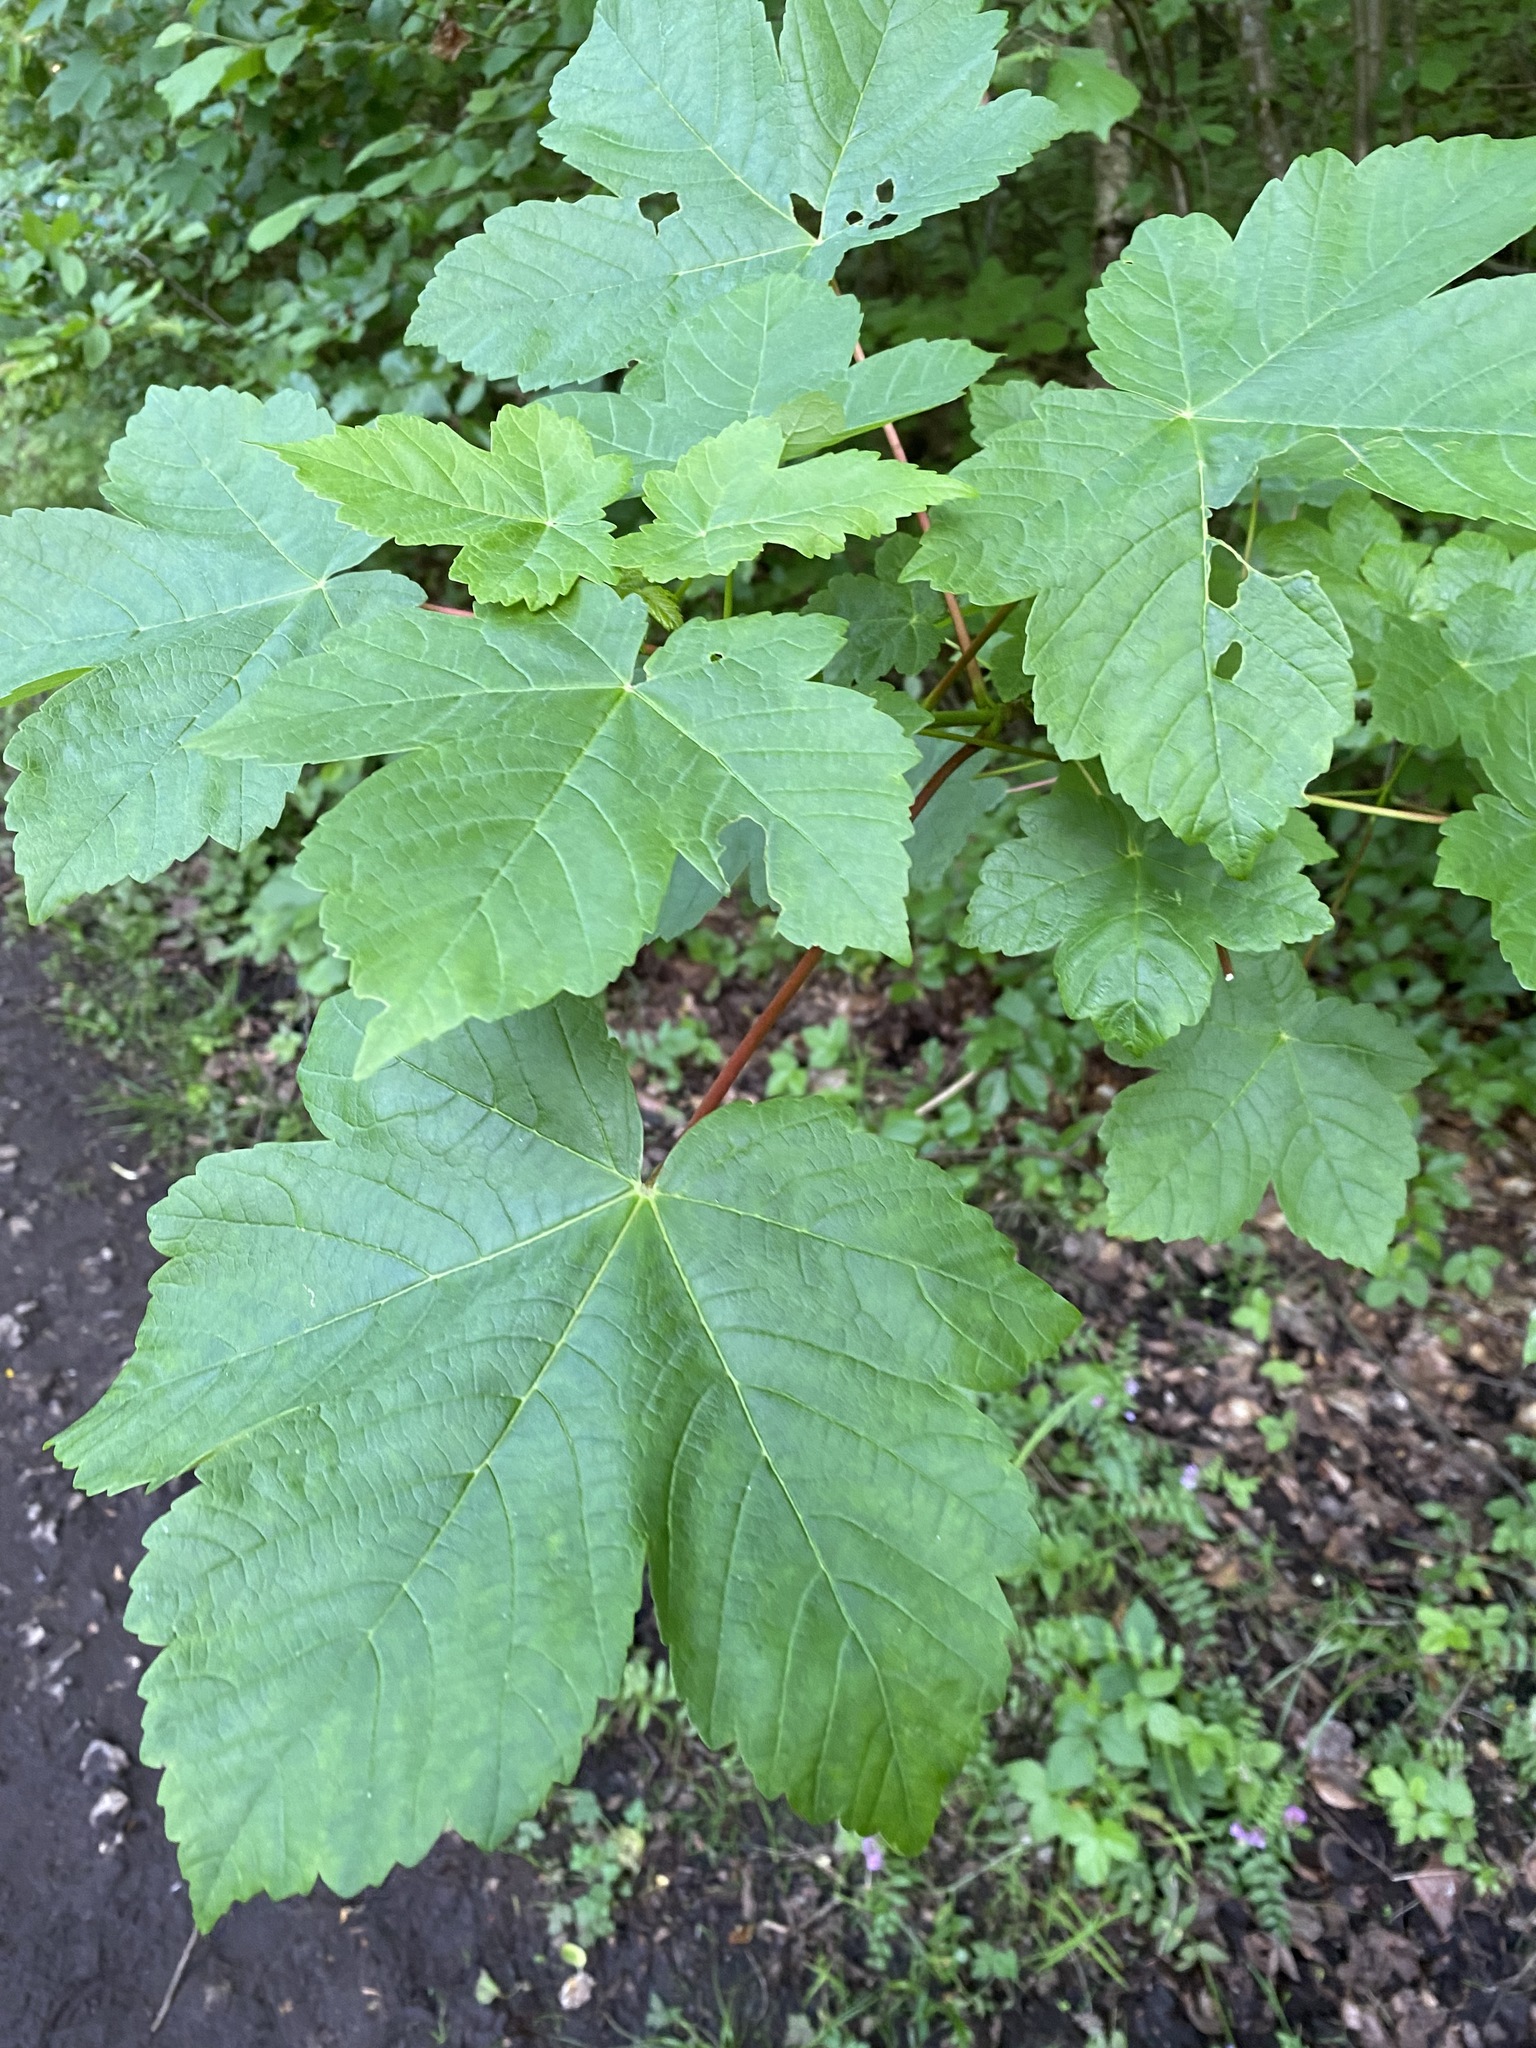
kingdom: Plantae
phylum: Tracheophyta
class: Magnoliopsida
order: Sapindales
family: Sapindaceae
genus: Acer
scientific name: Acer pseudoplatanus
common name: Sycamore
